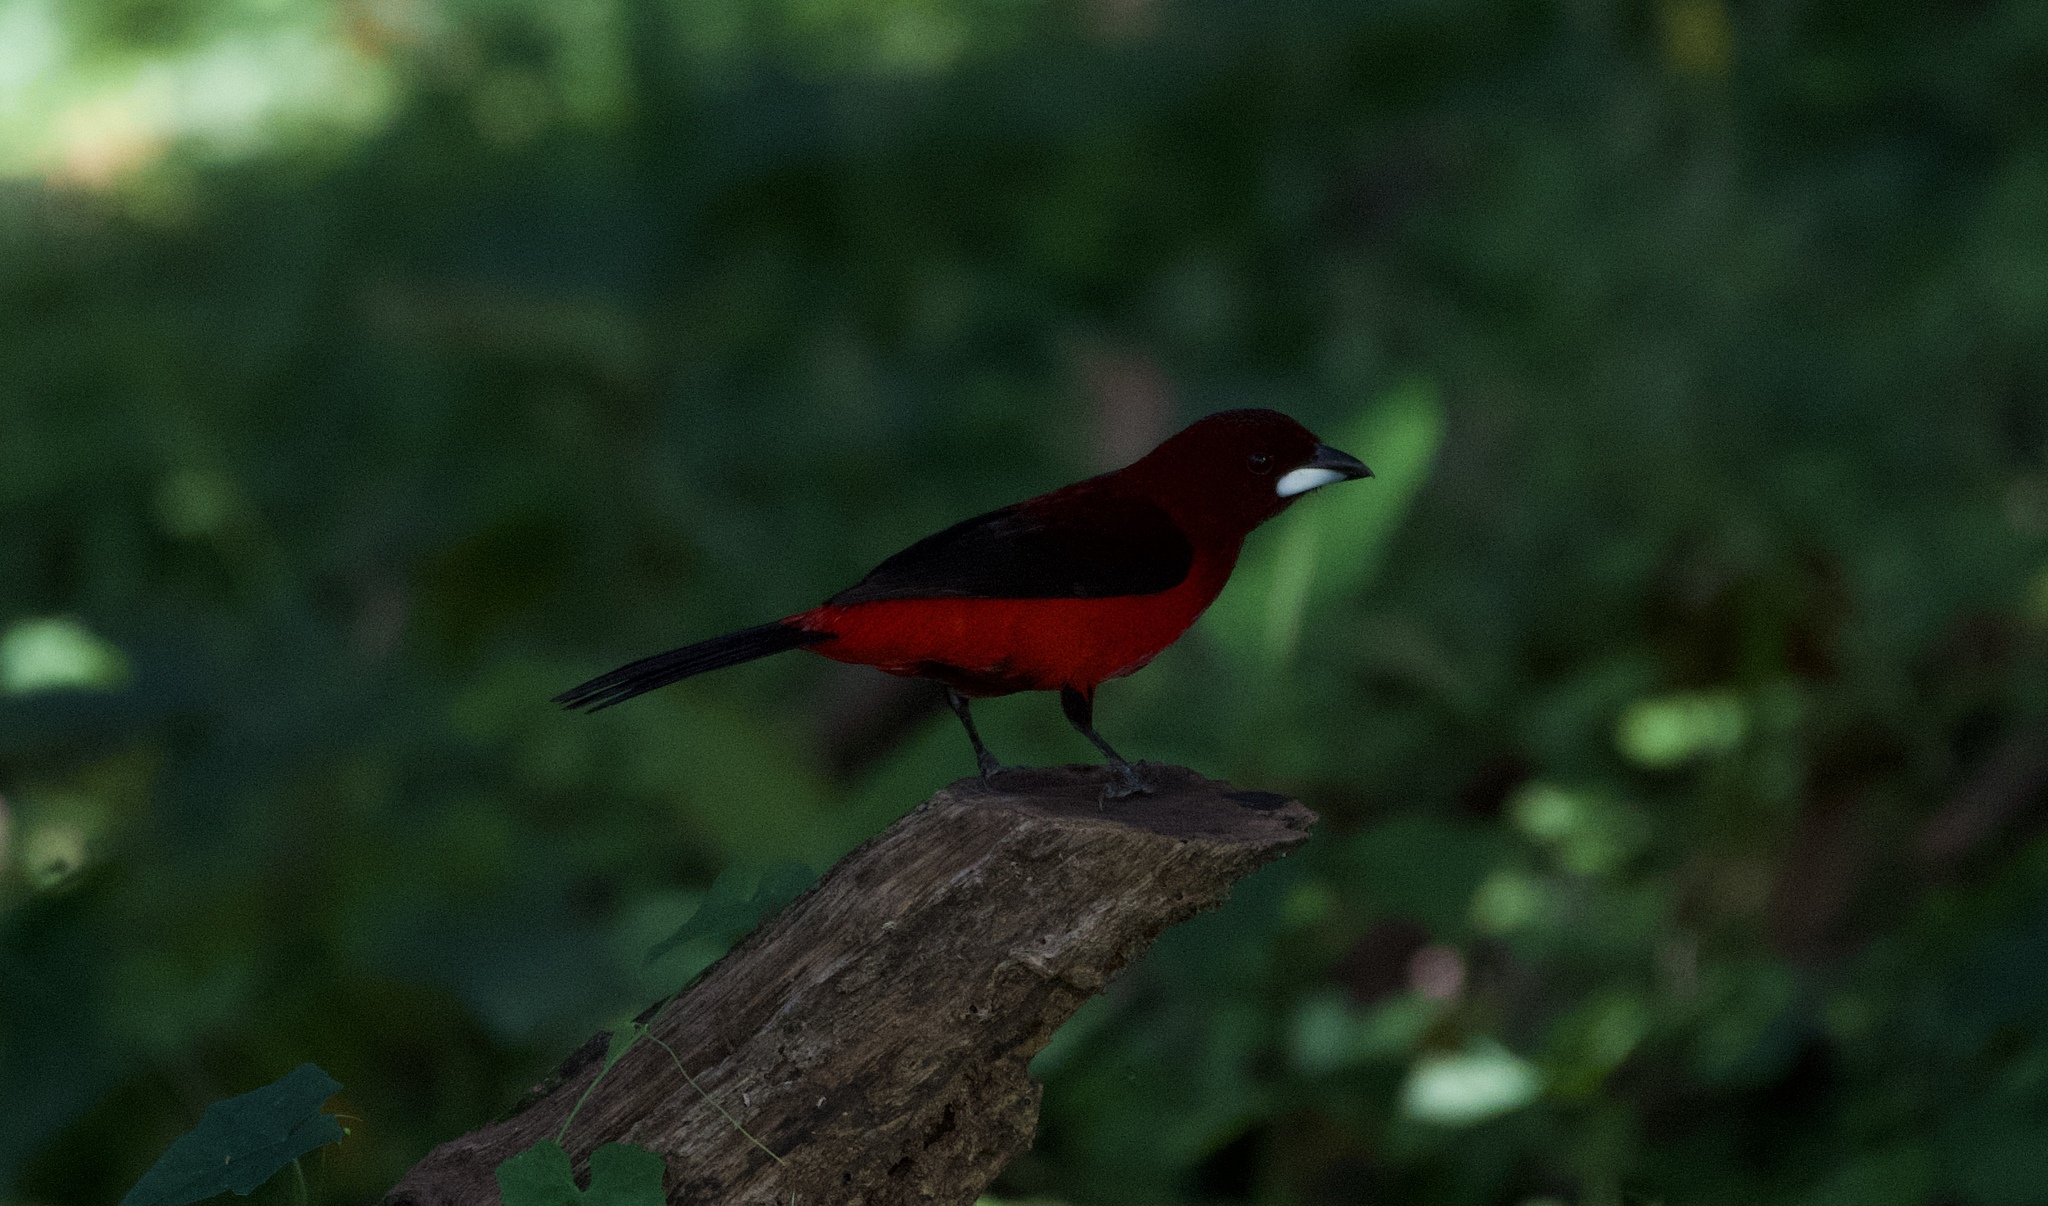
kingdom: Animalia
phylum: Chordata
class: Aves
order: Passeriformes
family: Thraupidae
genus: Ramphocelus
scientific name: Ramphocelus dimidiatus
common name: Crimson-backed tanager
